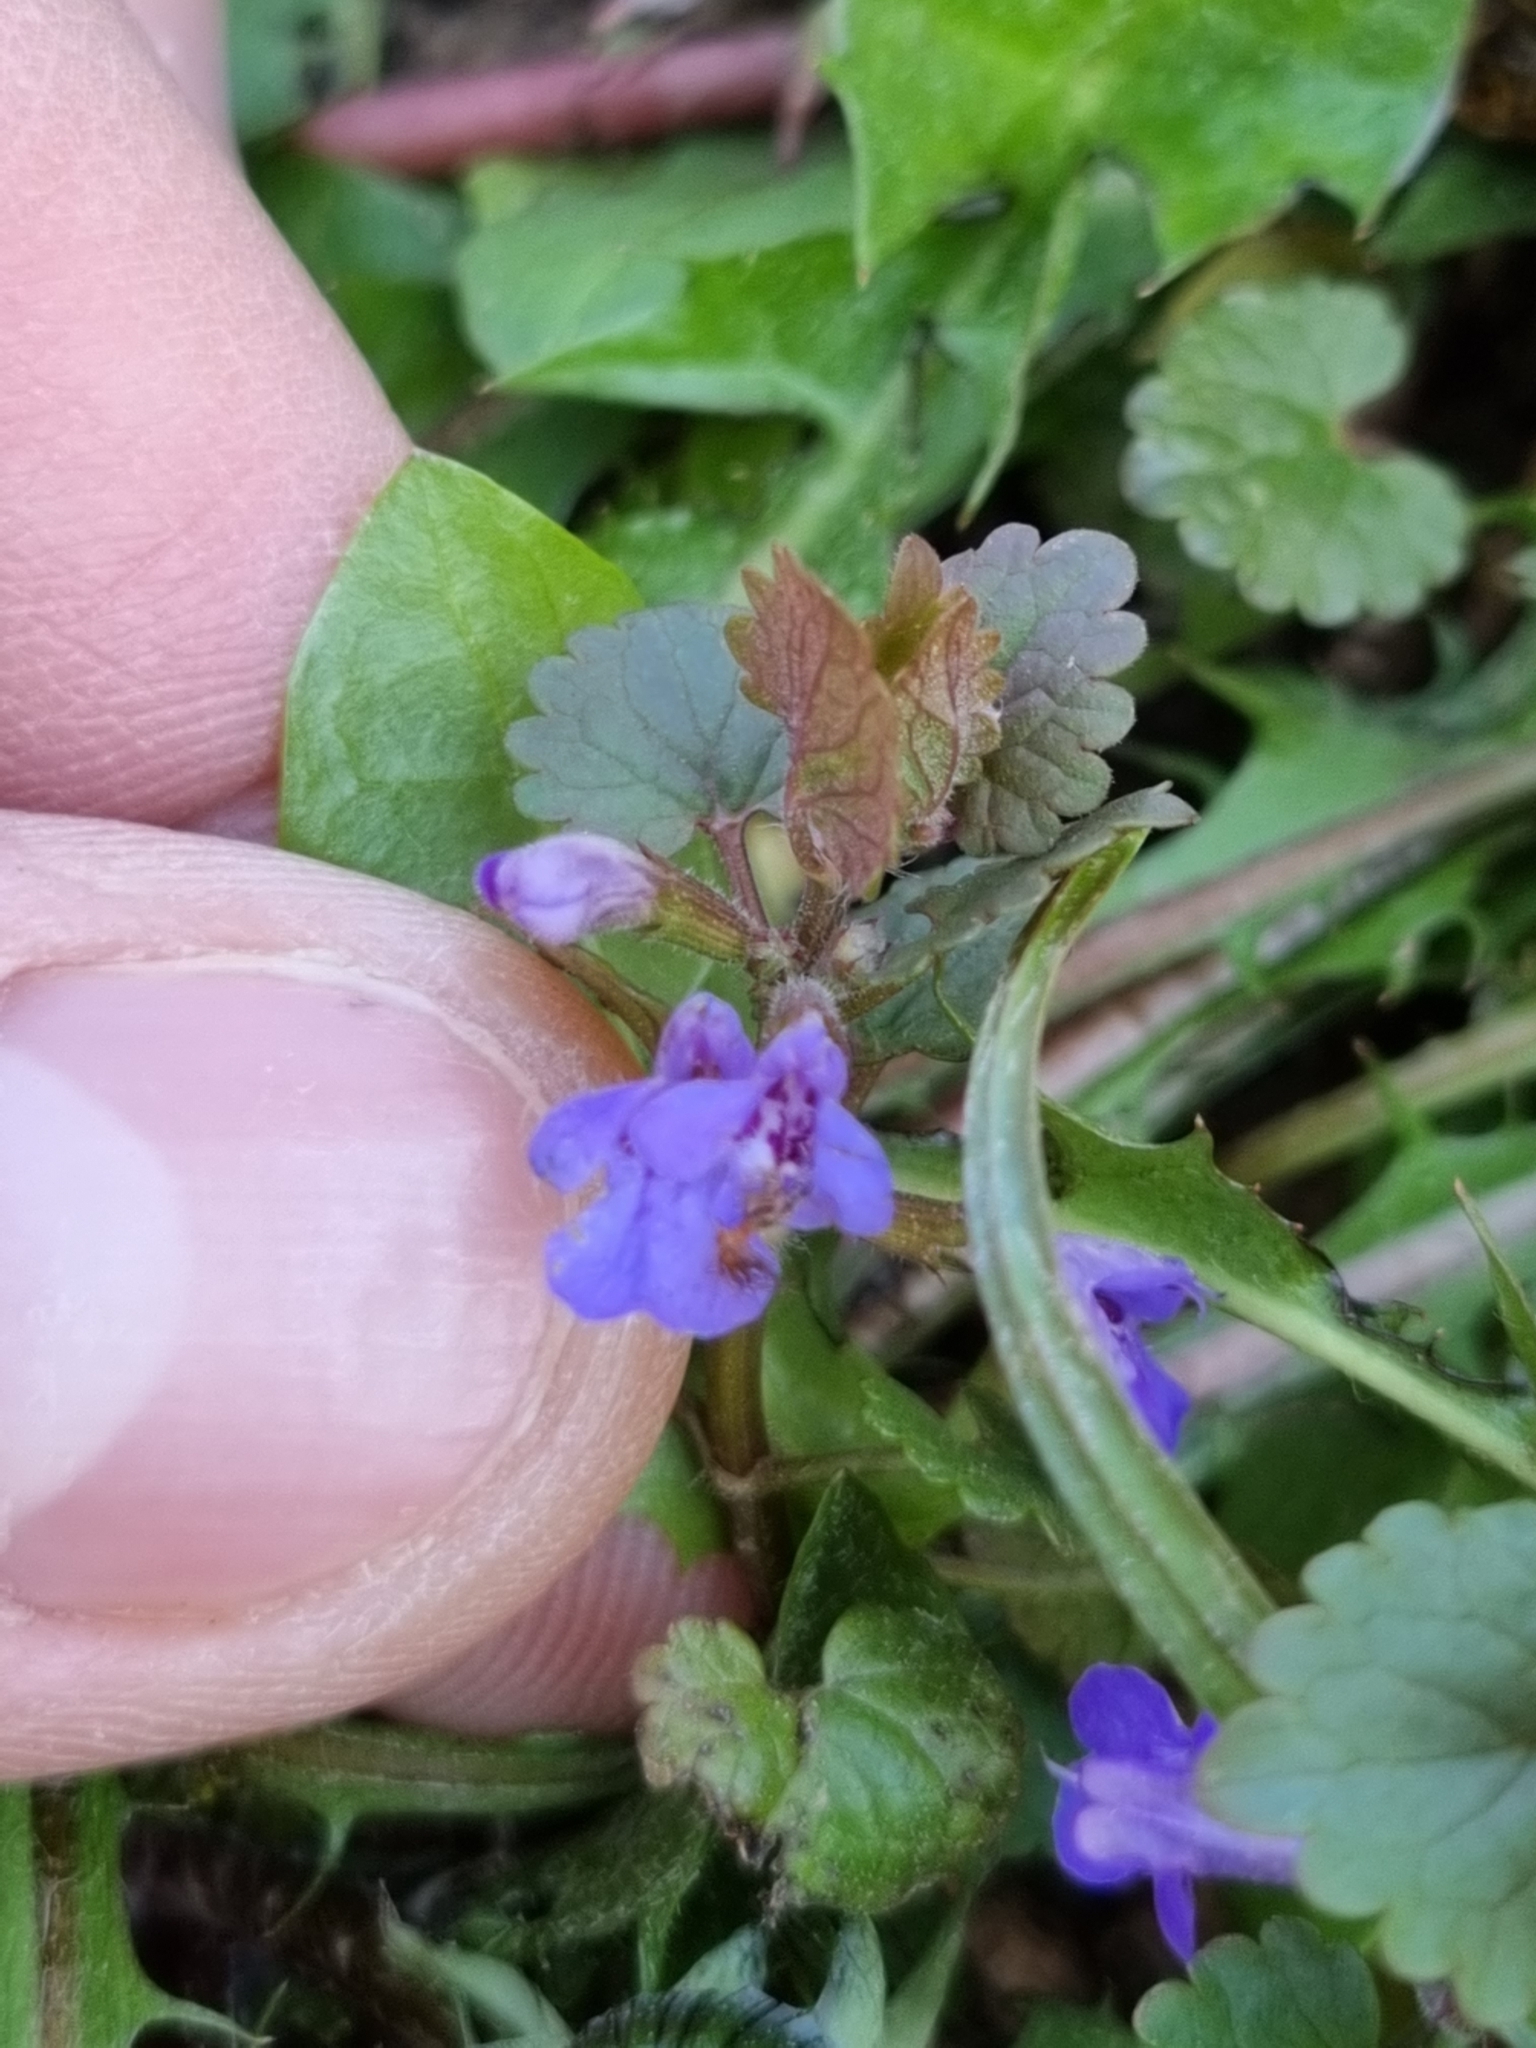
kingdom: Plantae
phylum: Tracheophyta
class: Magnoliopsida
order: Lamiales
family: Lamiaceae
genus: Glechoma
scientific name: Glechoma hederacea
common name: Ground ivy
